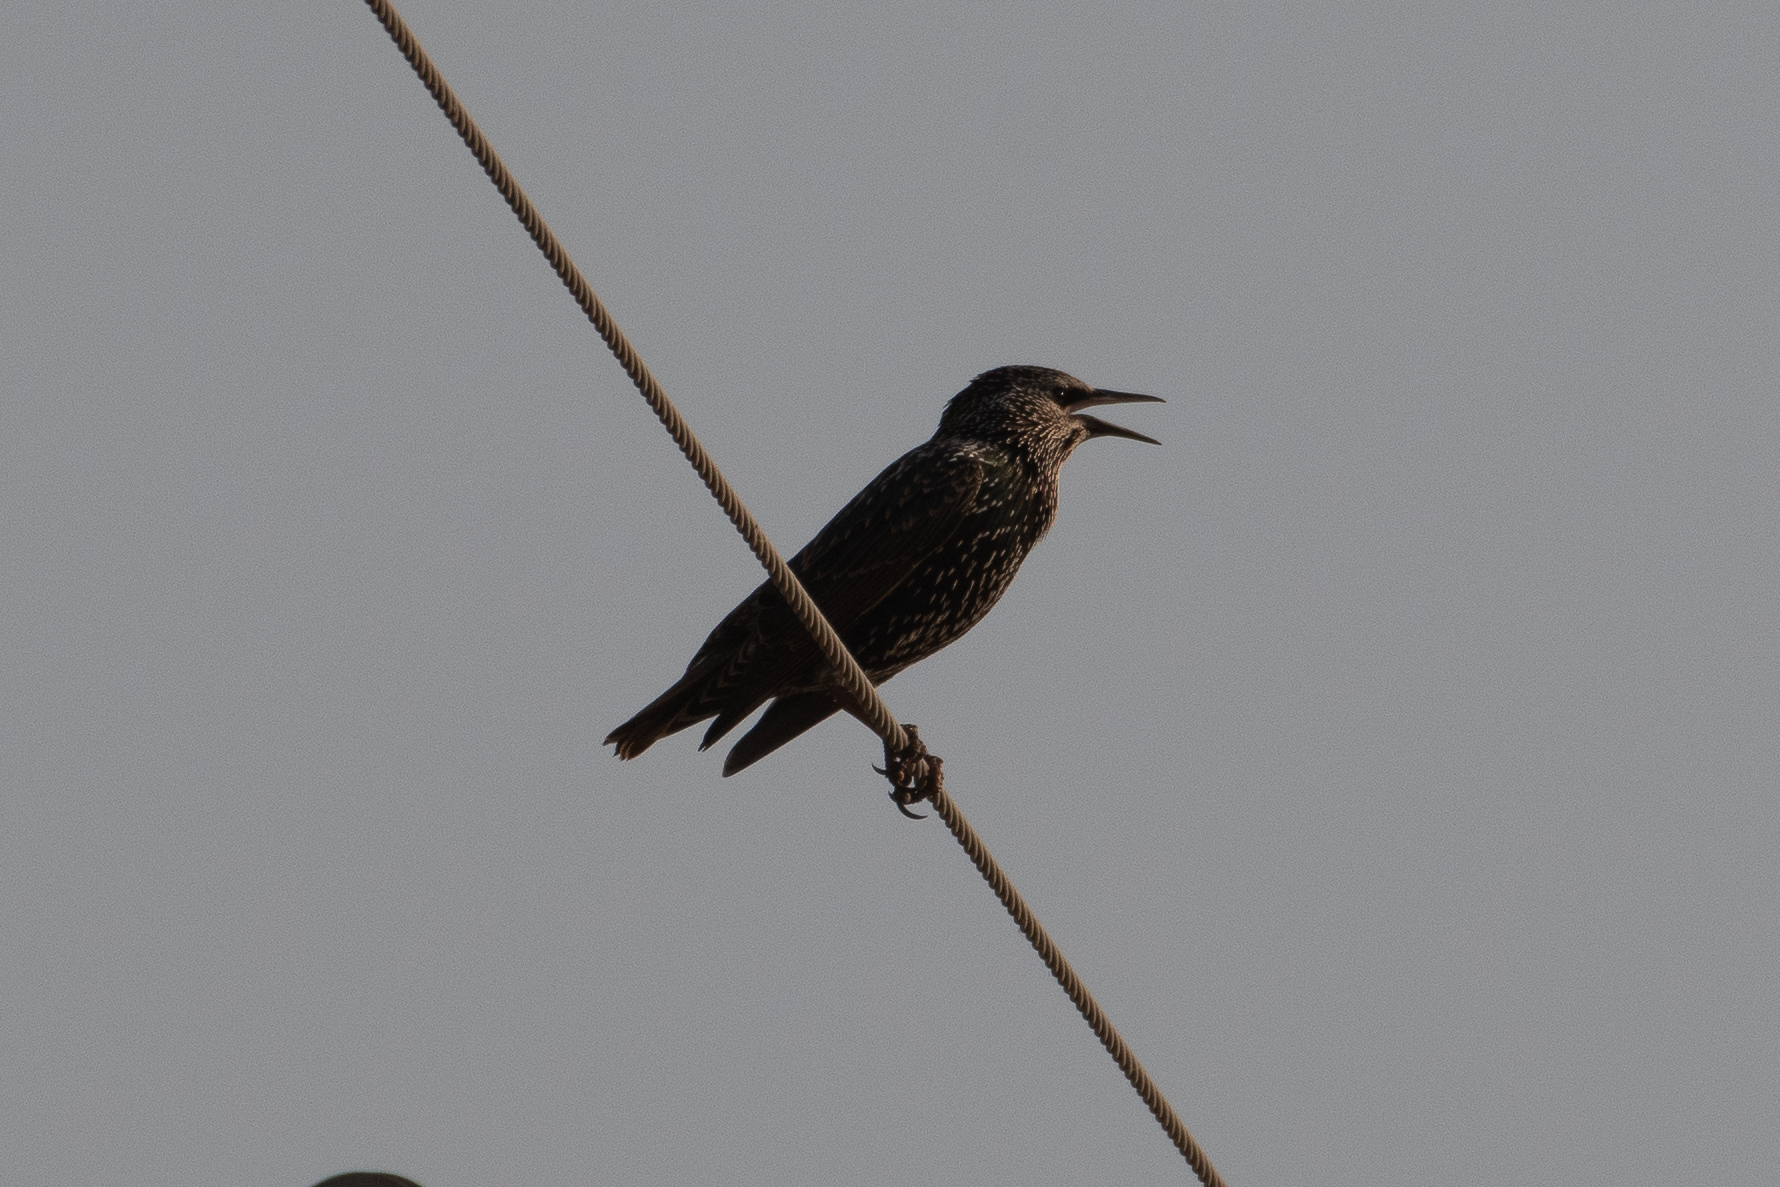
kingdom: Animalia
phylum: Chordata
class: Aves
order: Passeriformes
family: Sturnidae
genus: Sturnus
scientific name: Sturnus vulgaris
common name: Common starling
